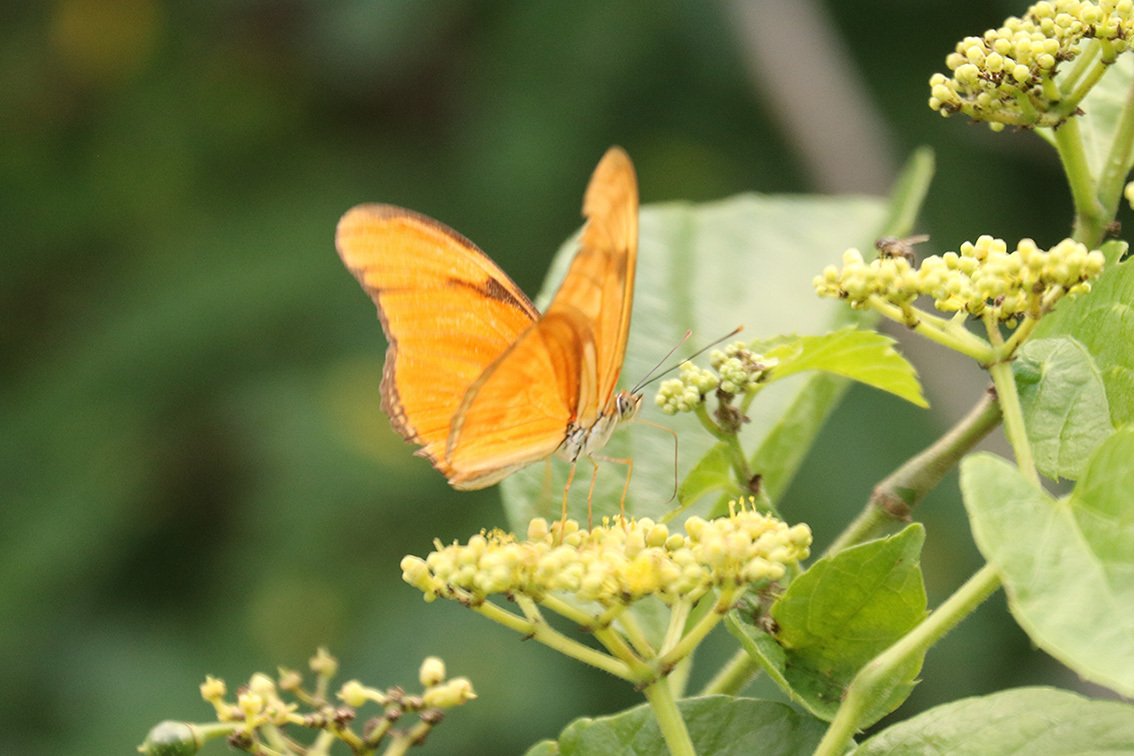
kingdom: Animalia
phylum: Arthropoda
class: Insecta
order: Lepidoptera
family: Nymphalidae
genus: Dryas
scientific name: Dryas iulia
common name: Flambeau
